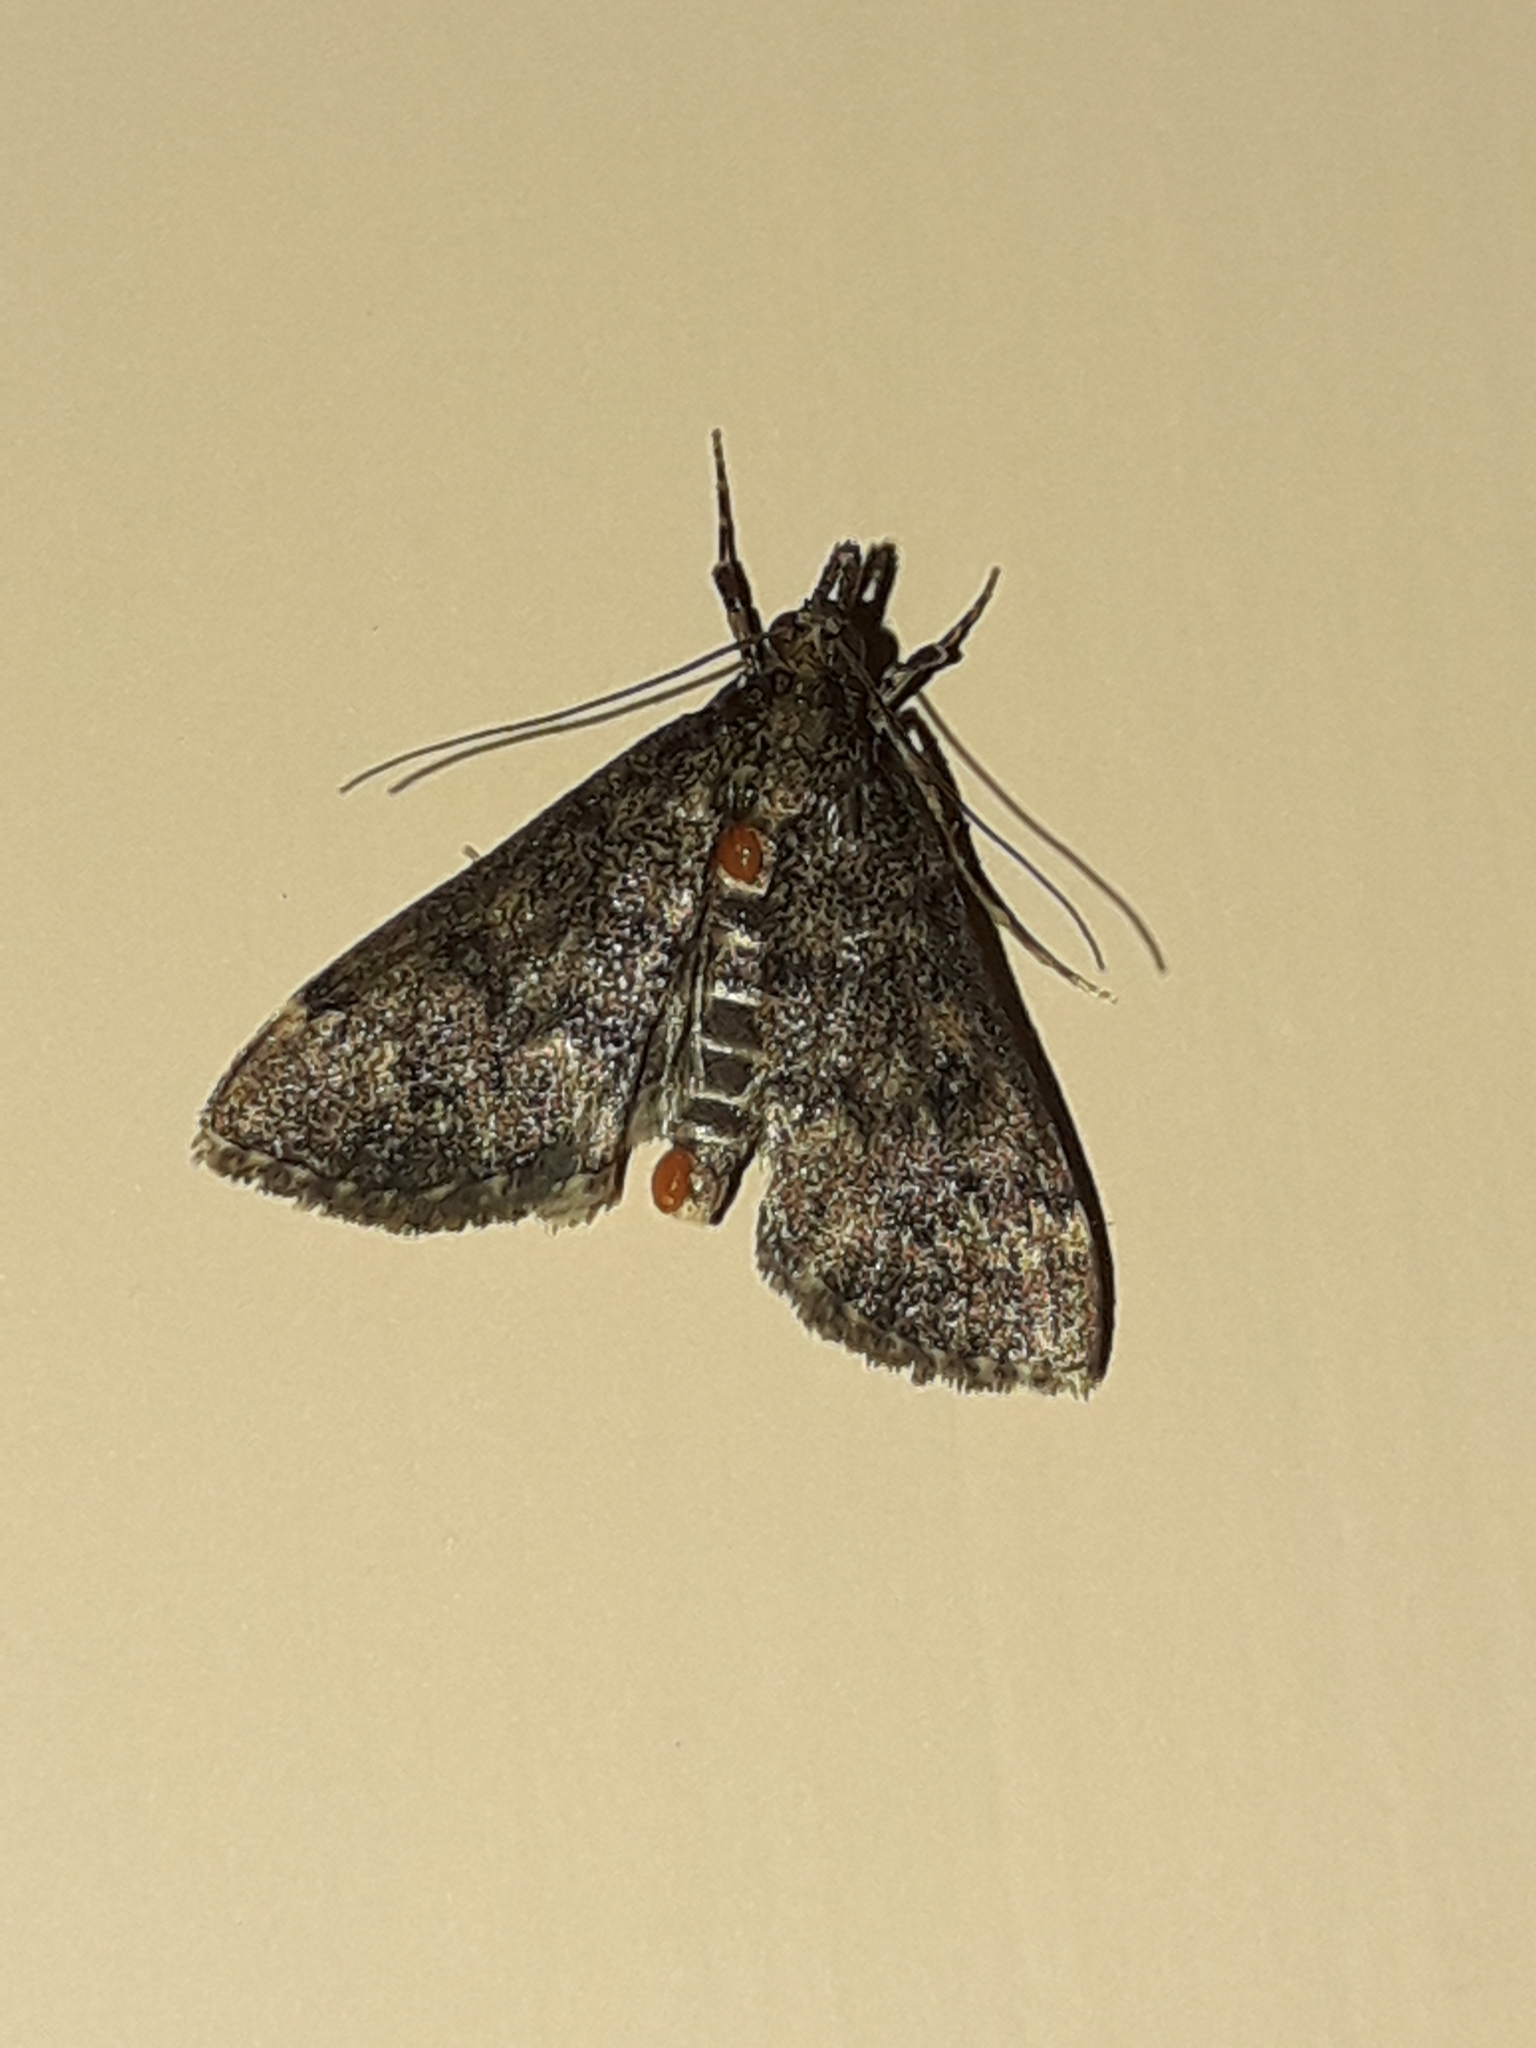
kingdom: Animalia
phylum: Arthropoda
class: Insecta
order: Lepidoptera
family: Crambidae
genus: Loxostege
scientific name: Loxostege Proternia philocapna
